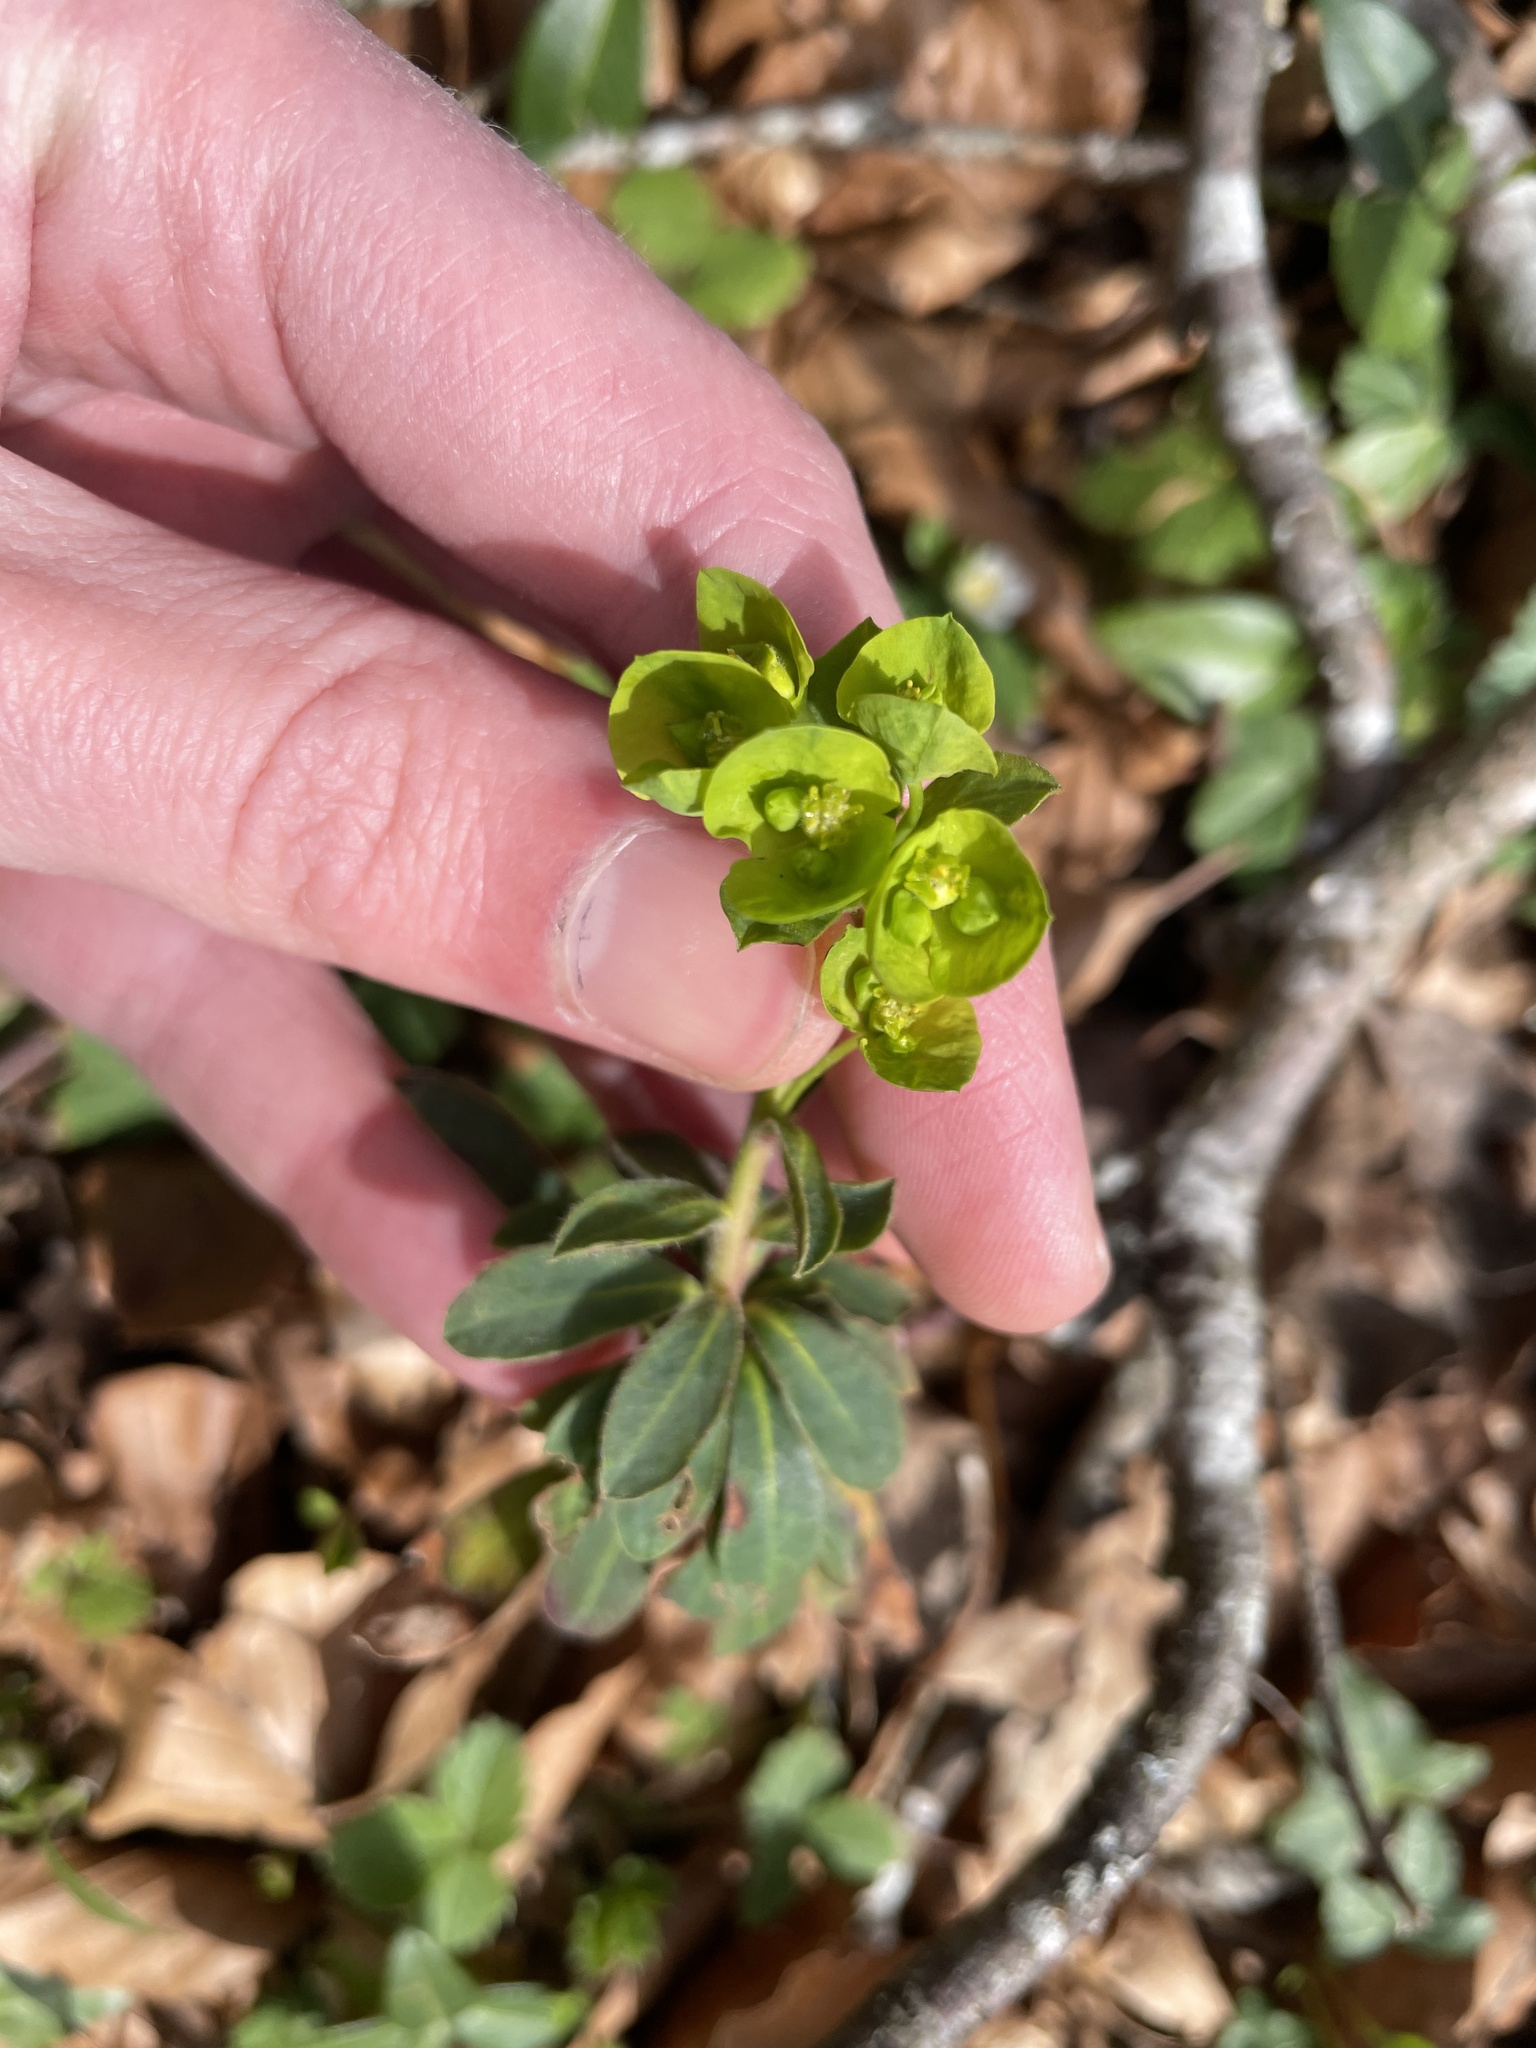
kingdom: Plantae
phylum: Tracheophyta
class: Magnoliopsida
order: Malpighiales
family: Euphorbiaceae
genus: Euphorbia
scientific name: Euphorbia amygdaloides
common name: Wood spurge
